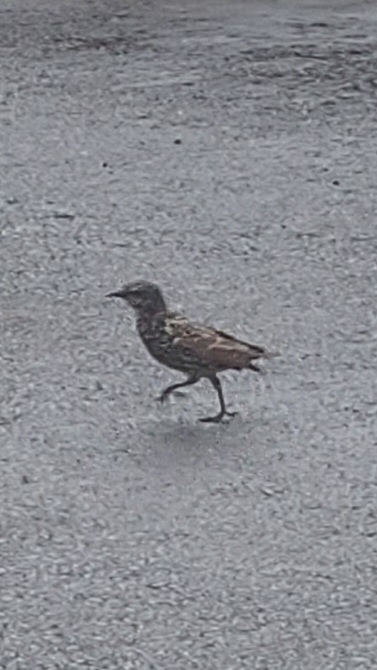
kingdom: Animalia
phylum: Chordata
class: Aves
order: Passeriformes
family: Sturnidae
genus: Sturnus
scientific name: Sturnus vulgaris
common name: Common starling
